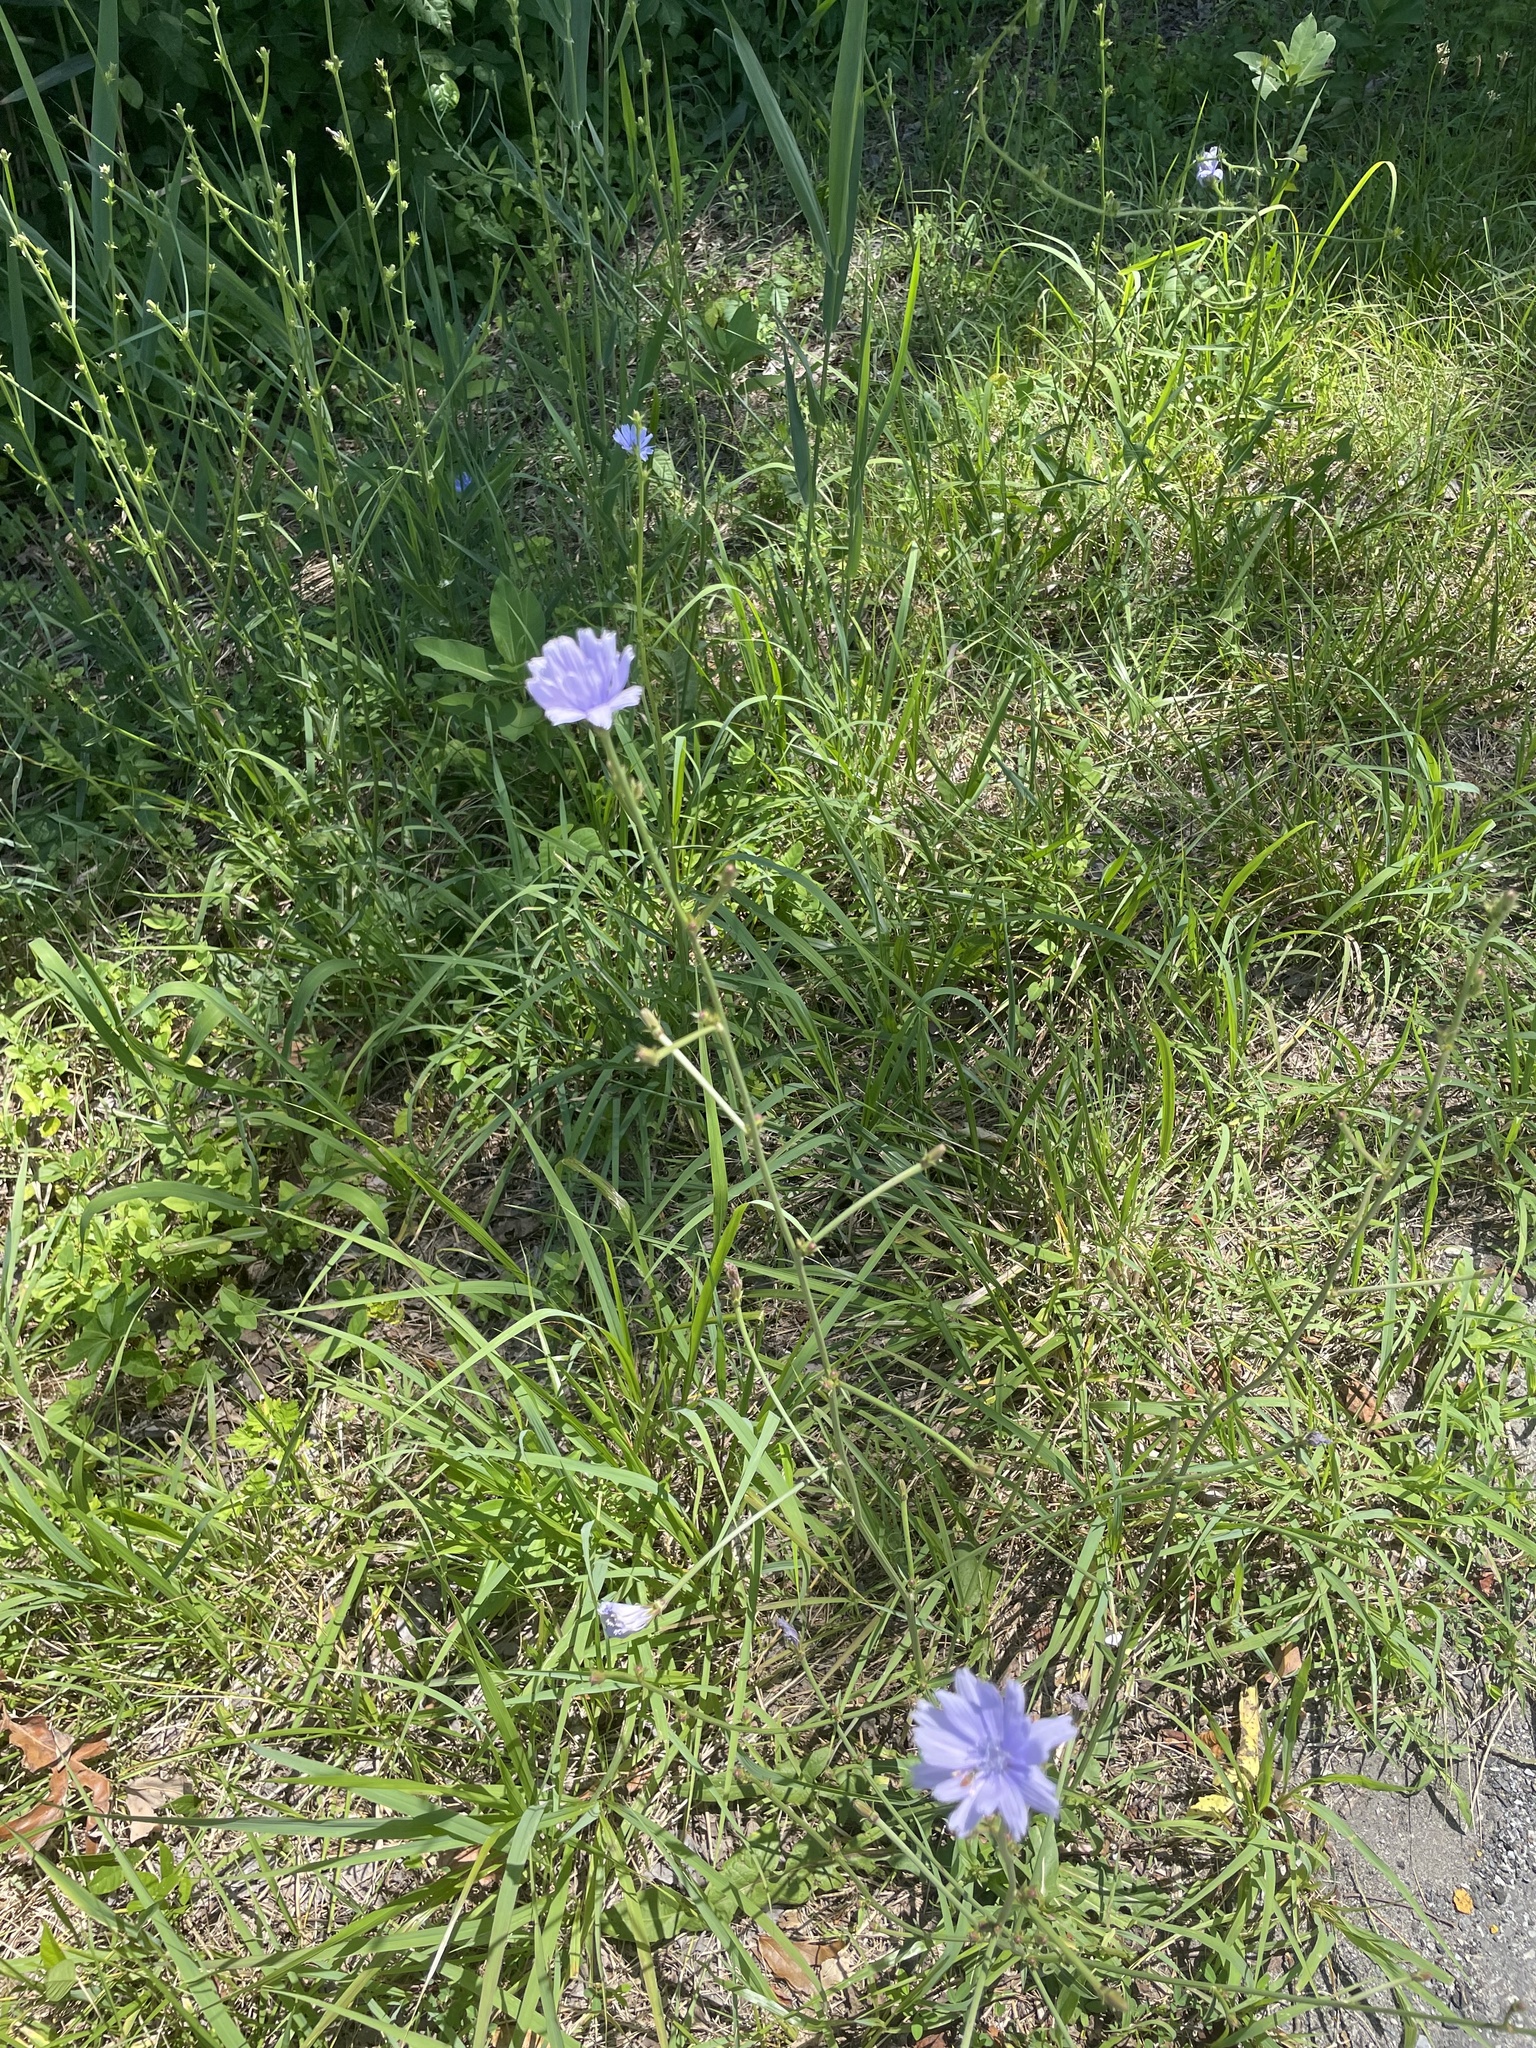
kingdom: Plantae
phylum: Tracheophyta
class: Magnoliopsida
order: Asterales
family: Asteraceae
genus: Cichorium
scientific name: Cichorium intybus
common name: Chicory
